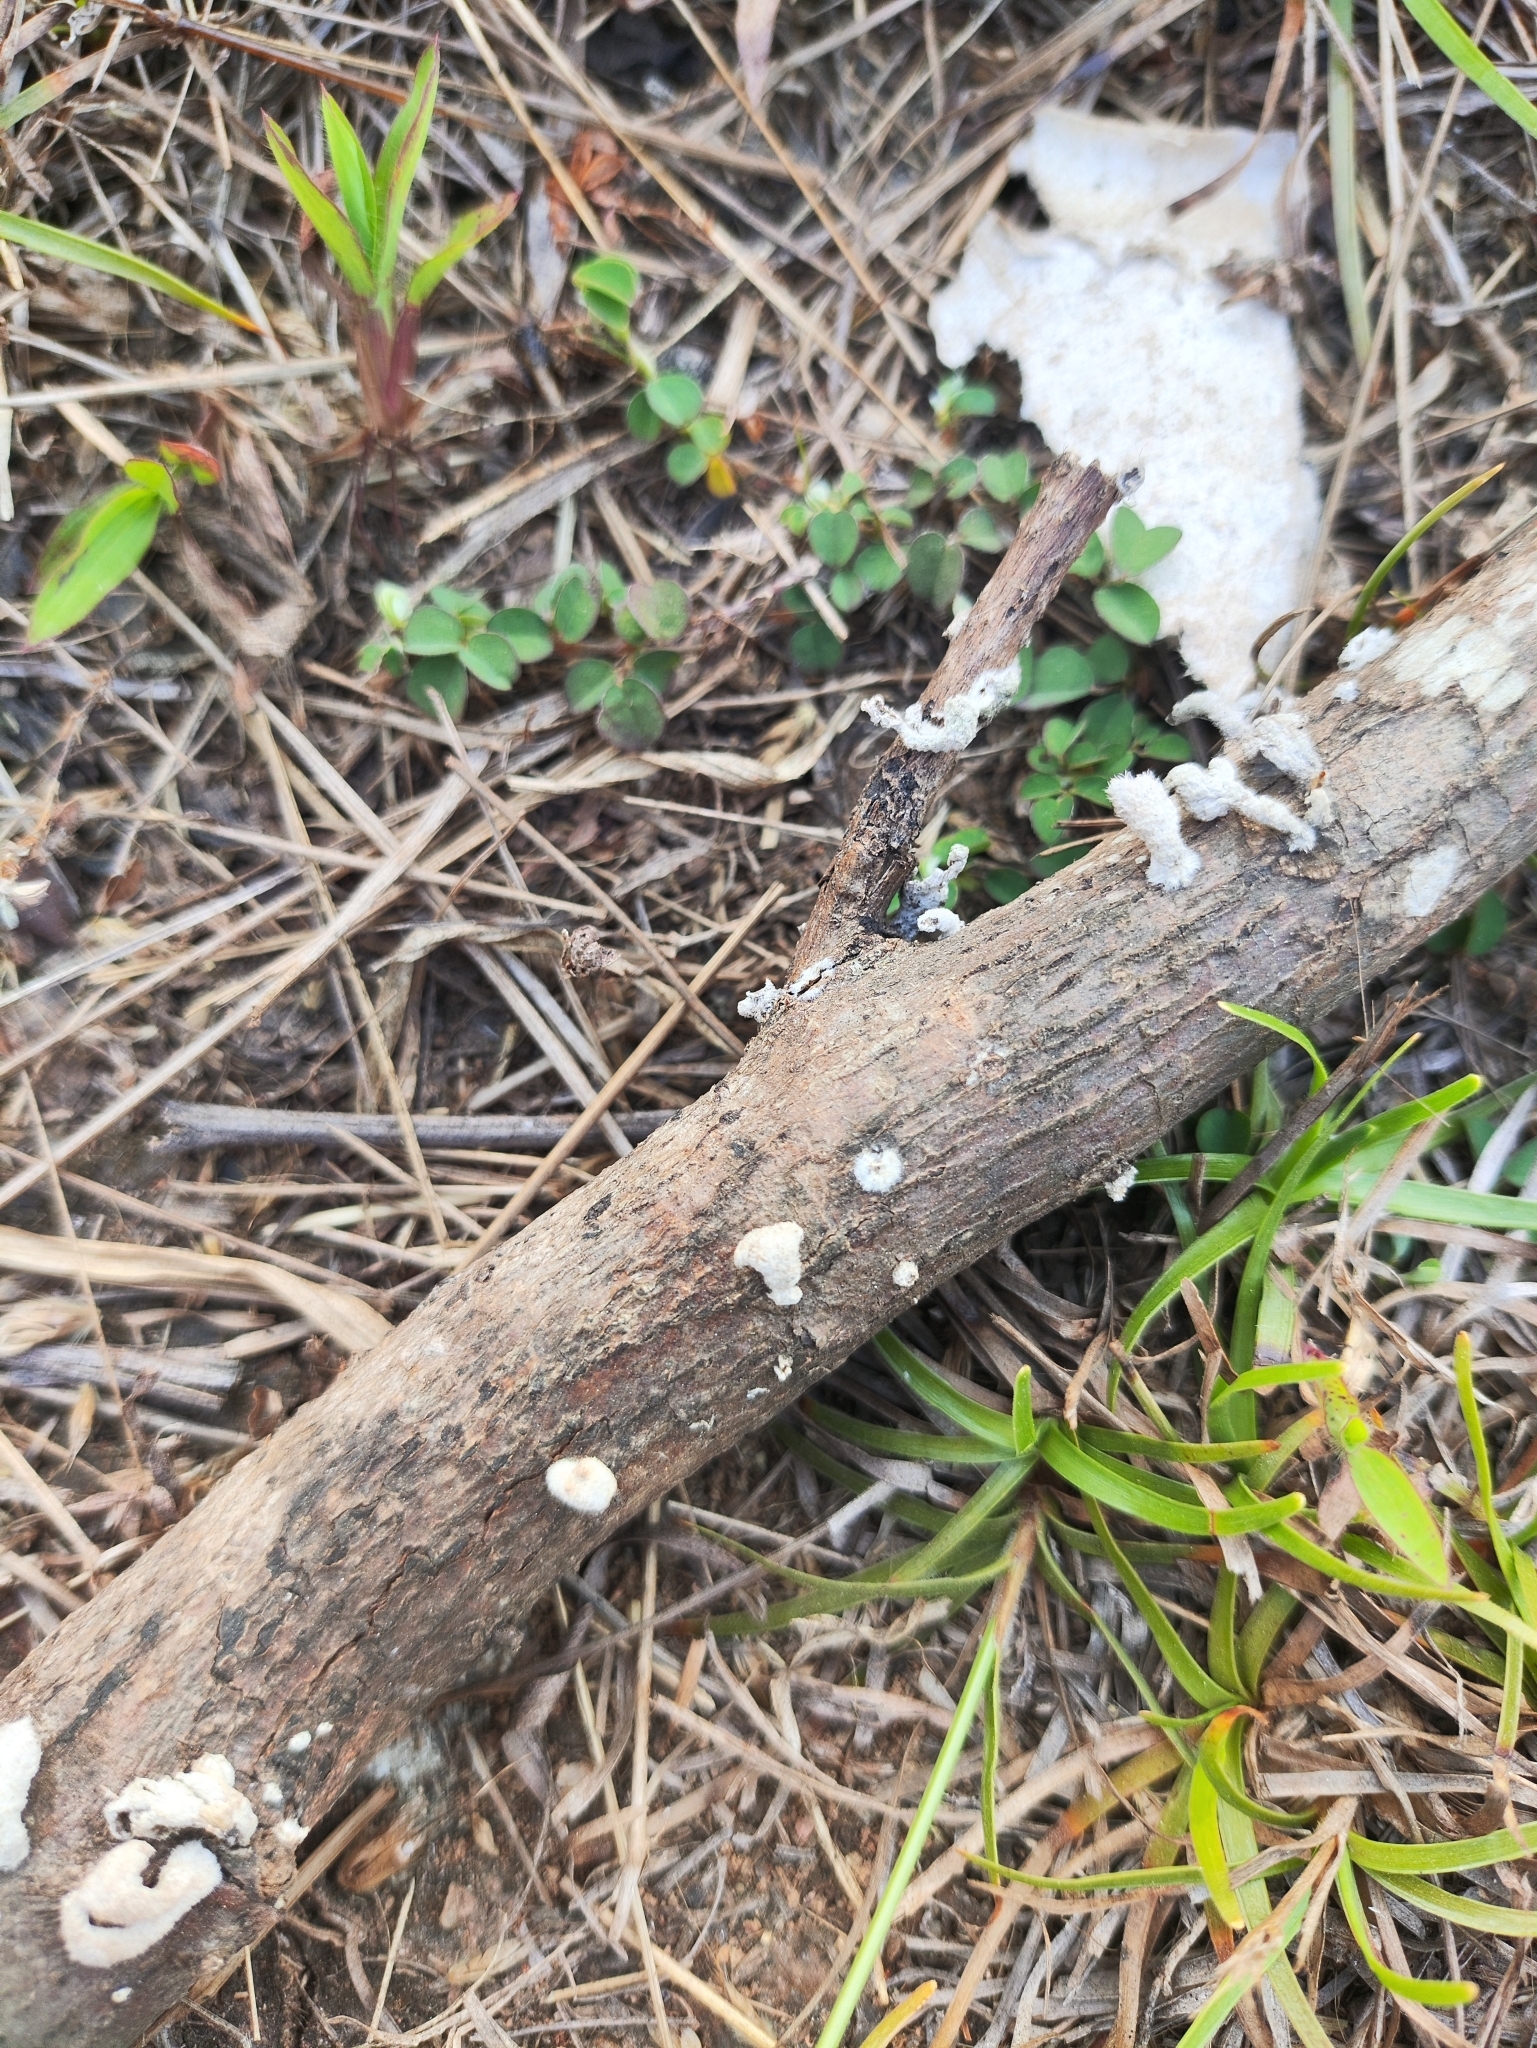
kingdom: Fungi
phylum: Basidiomycota
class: Agaricomycetes
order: Agaricales
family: Schizophyllaceae
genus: Schizophyllum
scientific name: Schizophyllum commune
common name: Common porecrust
